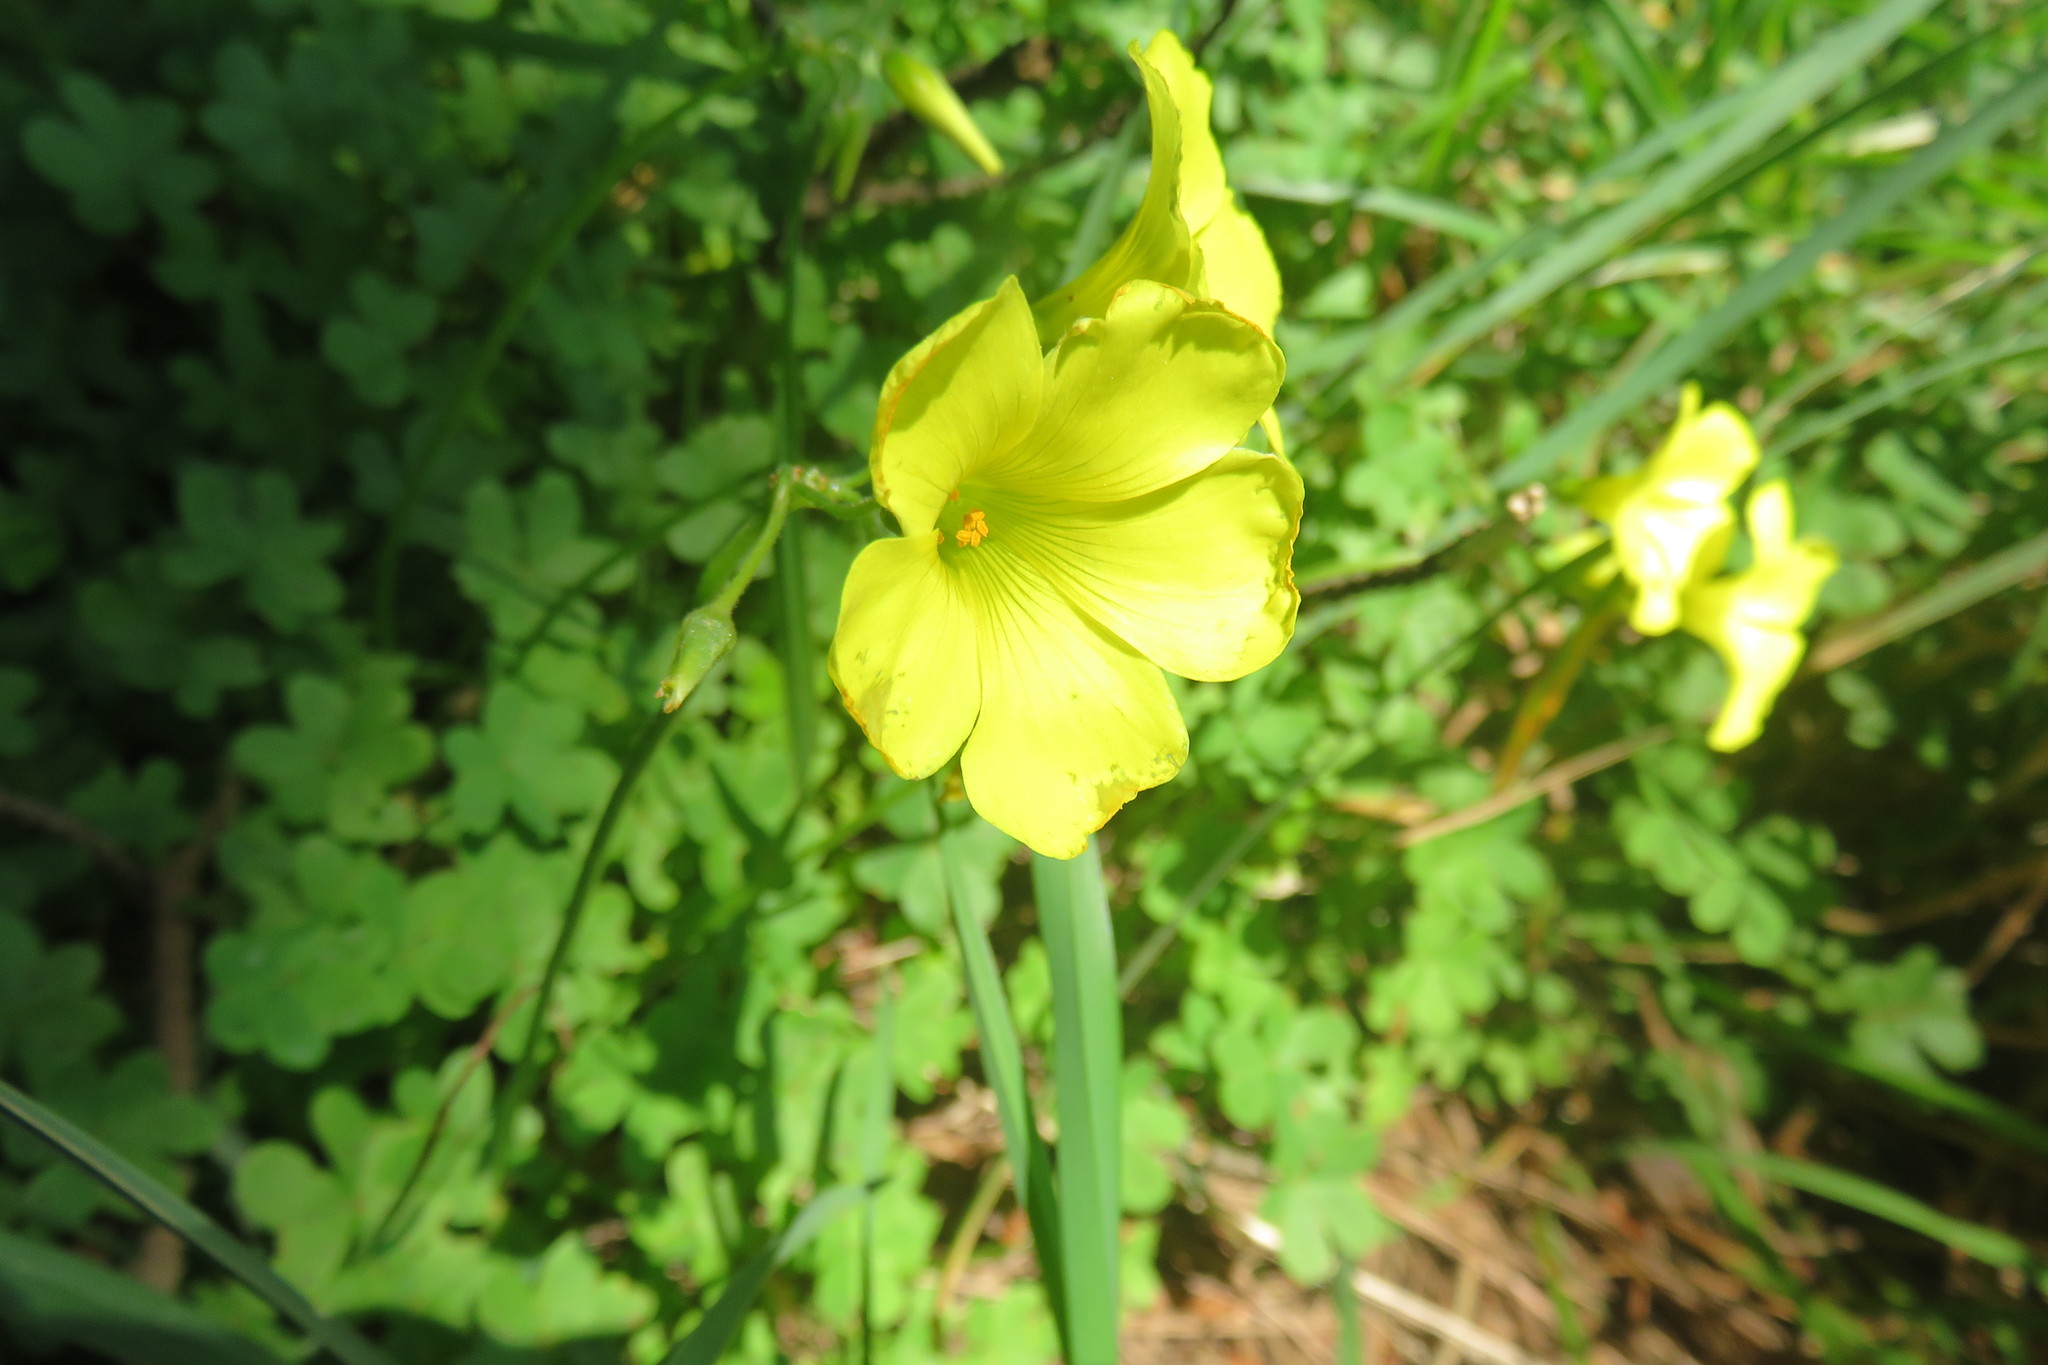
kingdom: Plantae
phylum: Tracheophyta
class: Magnoliopsida
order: Oxalidales
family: Oxalidaceae
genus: Oxalis
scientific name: Oxalis pes-caprae
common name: Bermuda-buttercup
